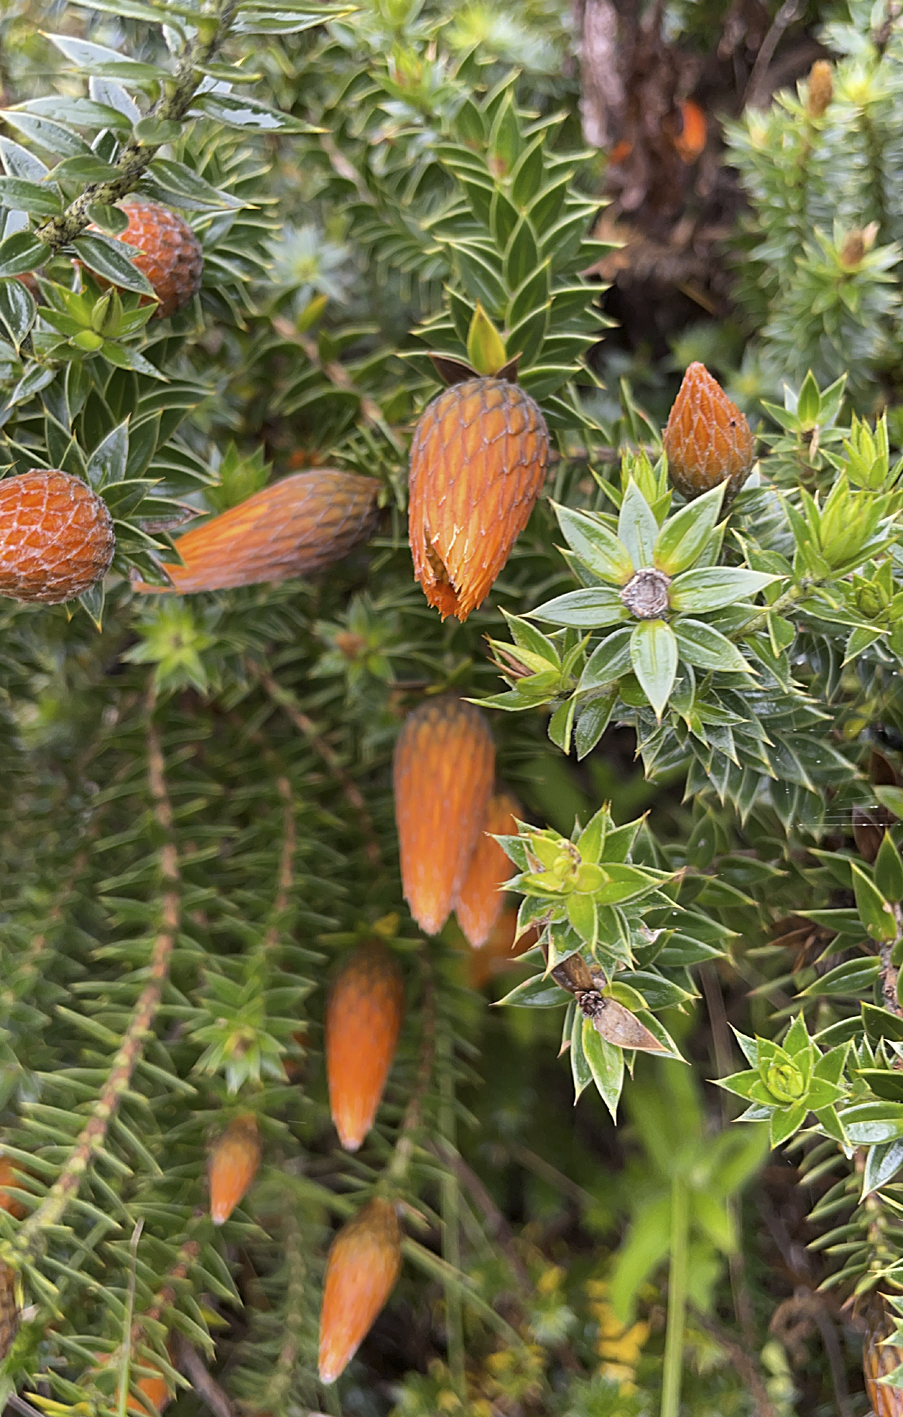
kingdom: Plantae
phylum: Tracheophyta
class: Magnoliopsida
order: Asterales
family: Asteraceae
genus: Chuquiraga
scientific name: Chuquiraga jussieui
